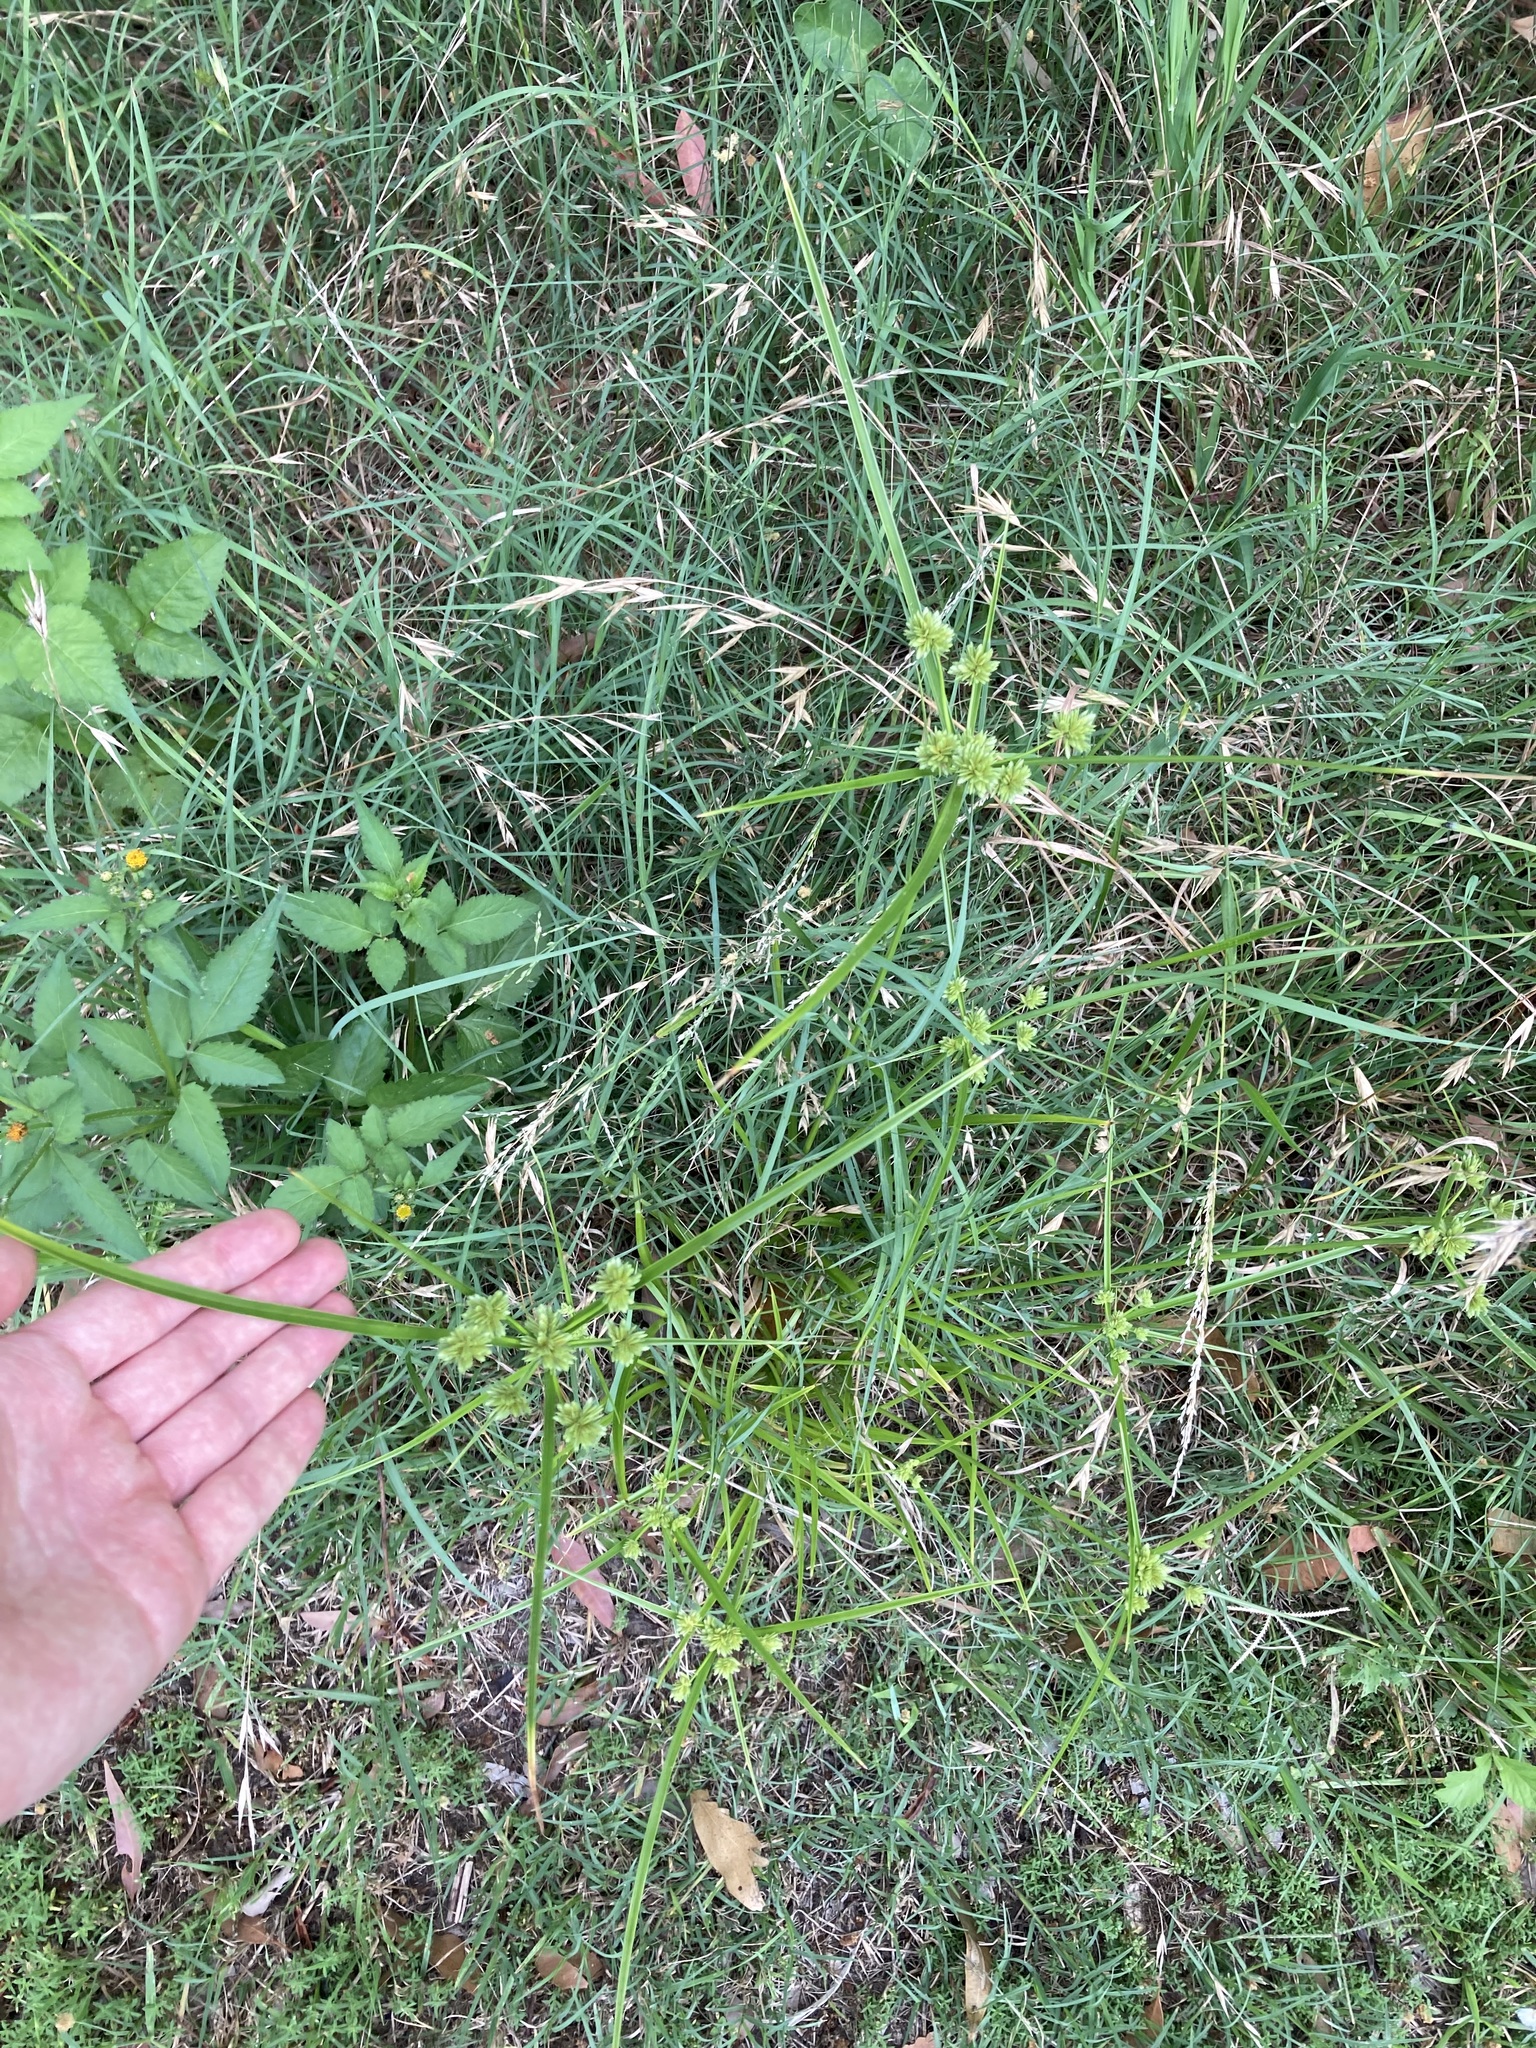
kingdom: Plantae
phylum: Tracheophyta
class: Liliopsida
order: Poales
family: Cyperaceae
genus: Cyperus
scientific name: Cyperus eragrostis
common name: Tall flatsedge
